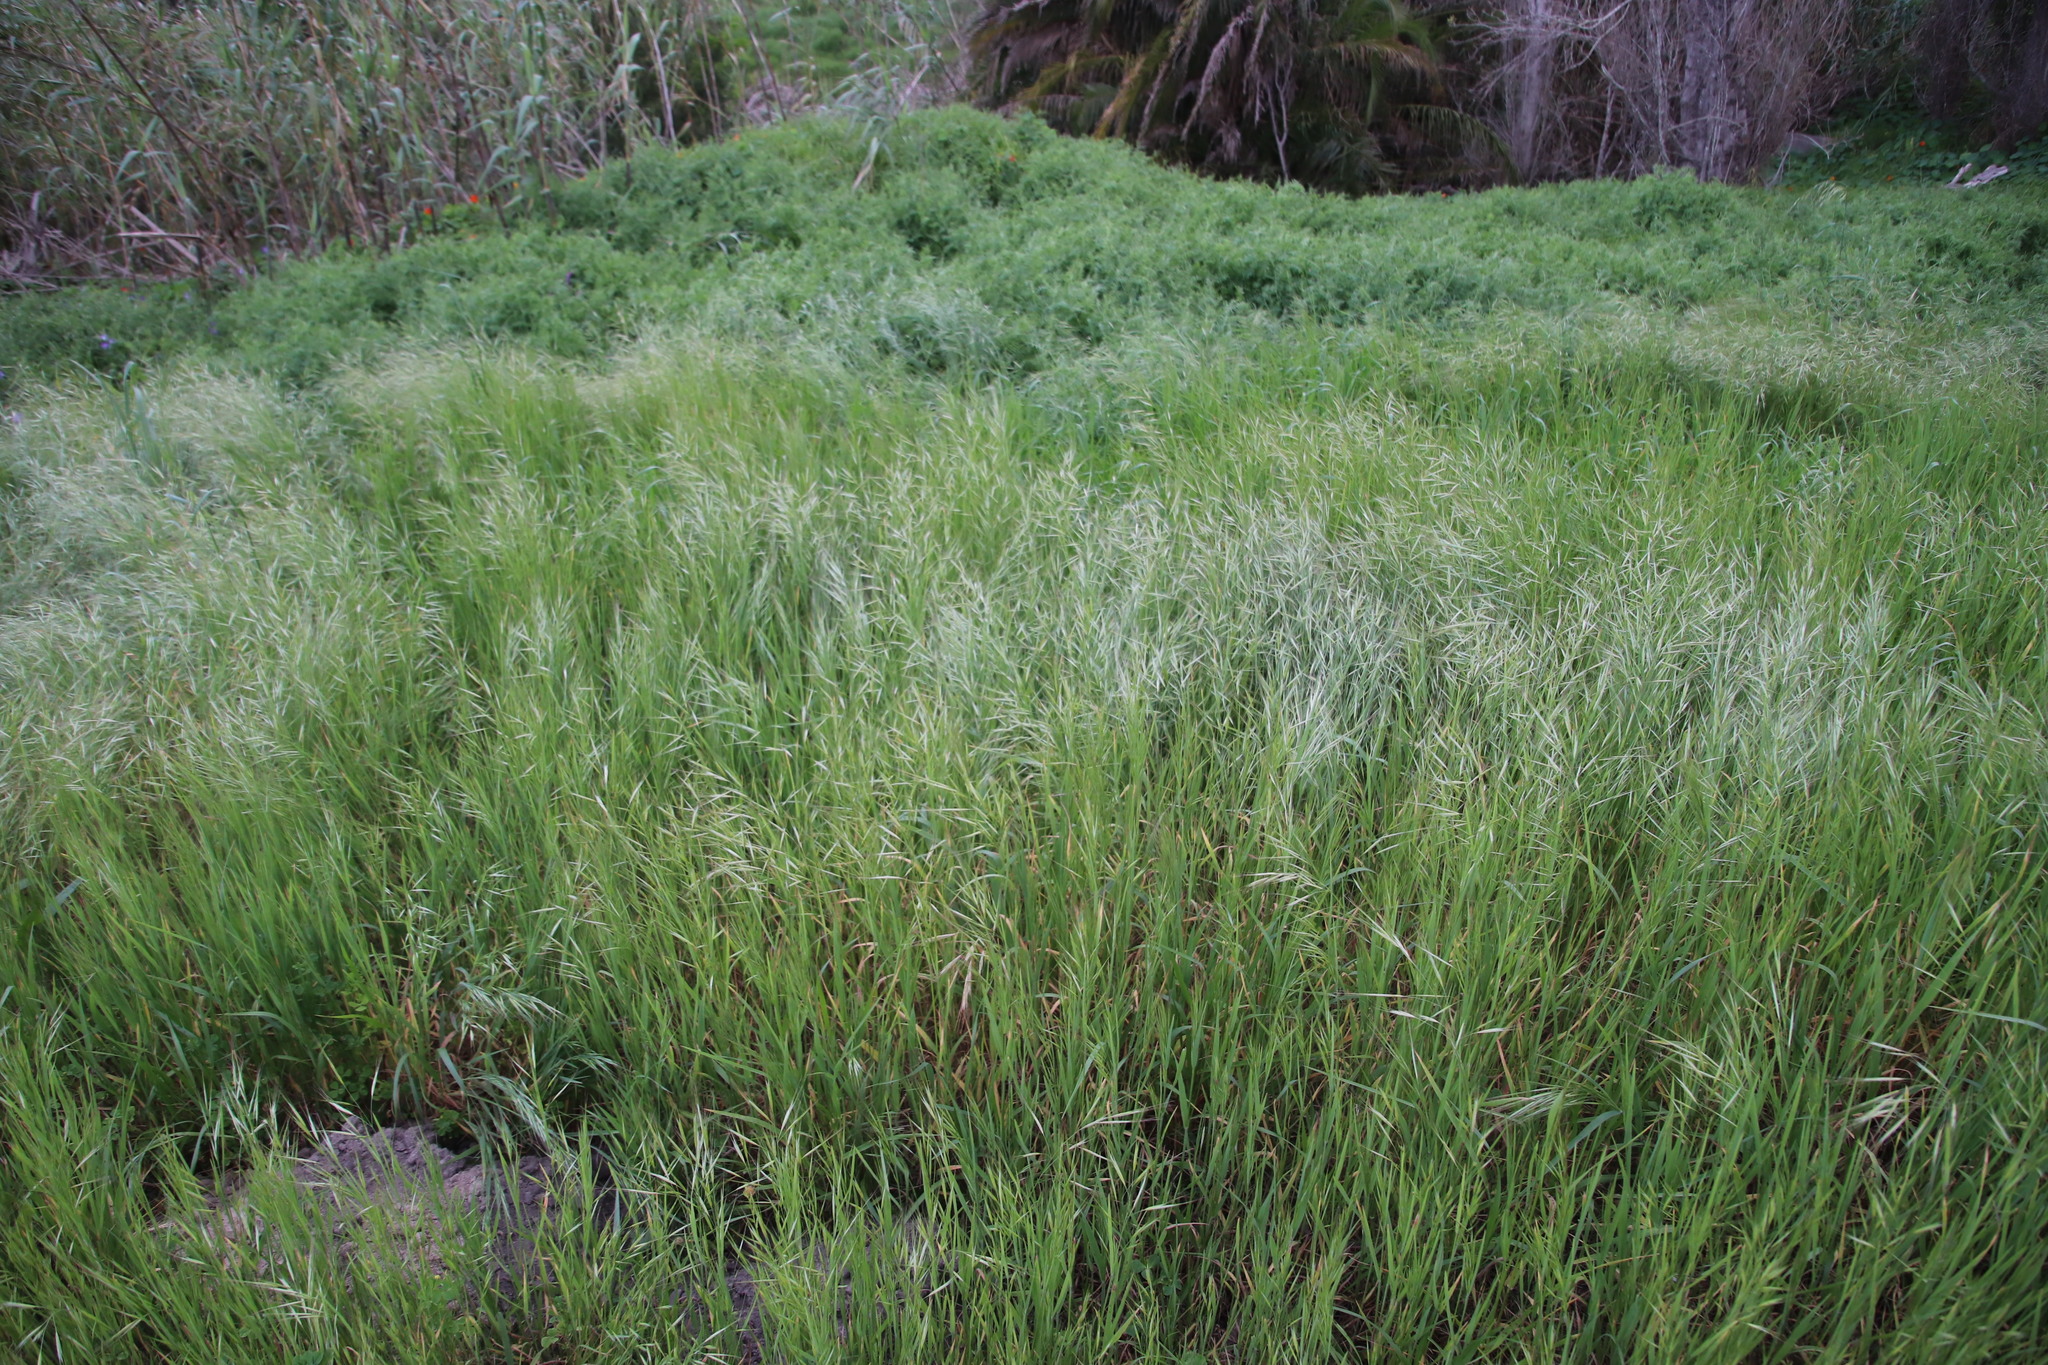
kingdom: Plantae
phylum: Tracheophyta
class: Liliopsida
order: Poales
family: Poaceae
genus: Bromus
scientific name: Bromus diandrus
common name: Ripgut brome
